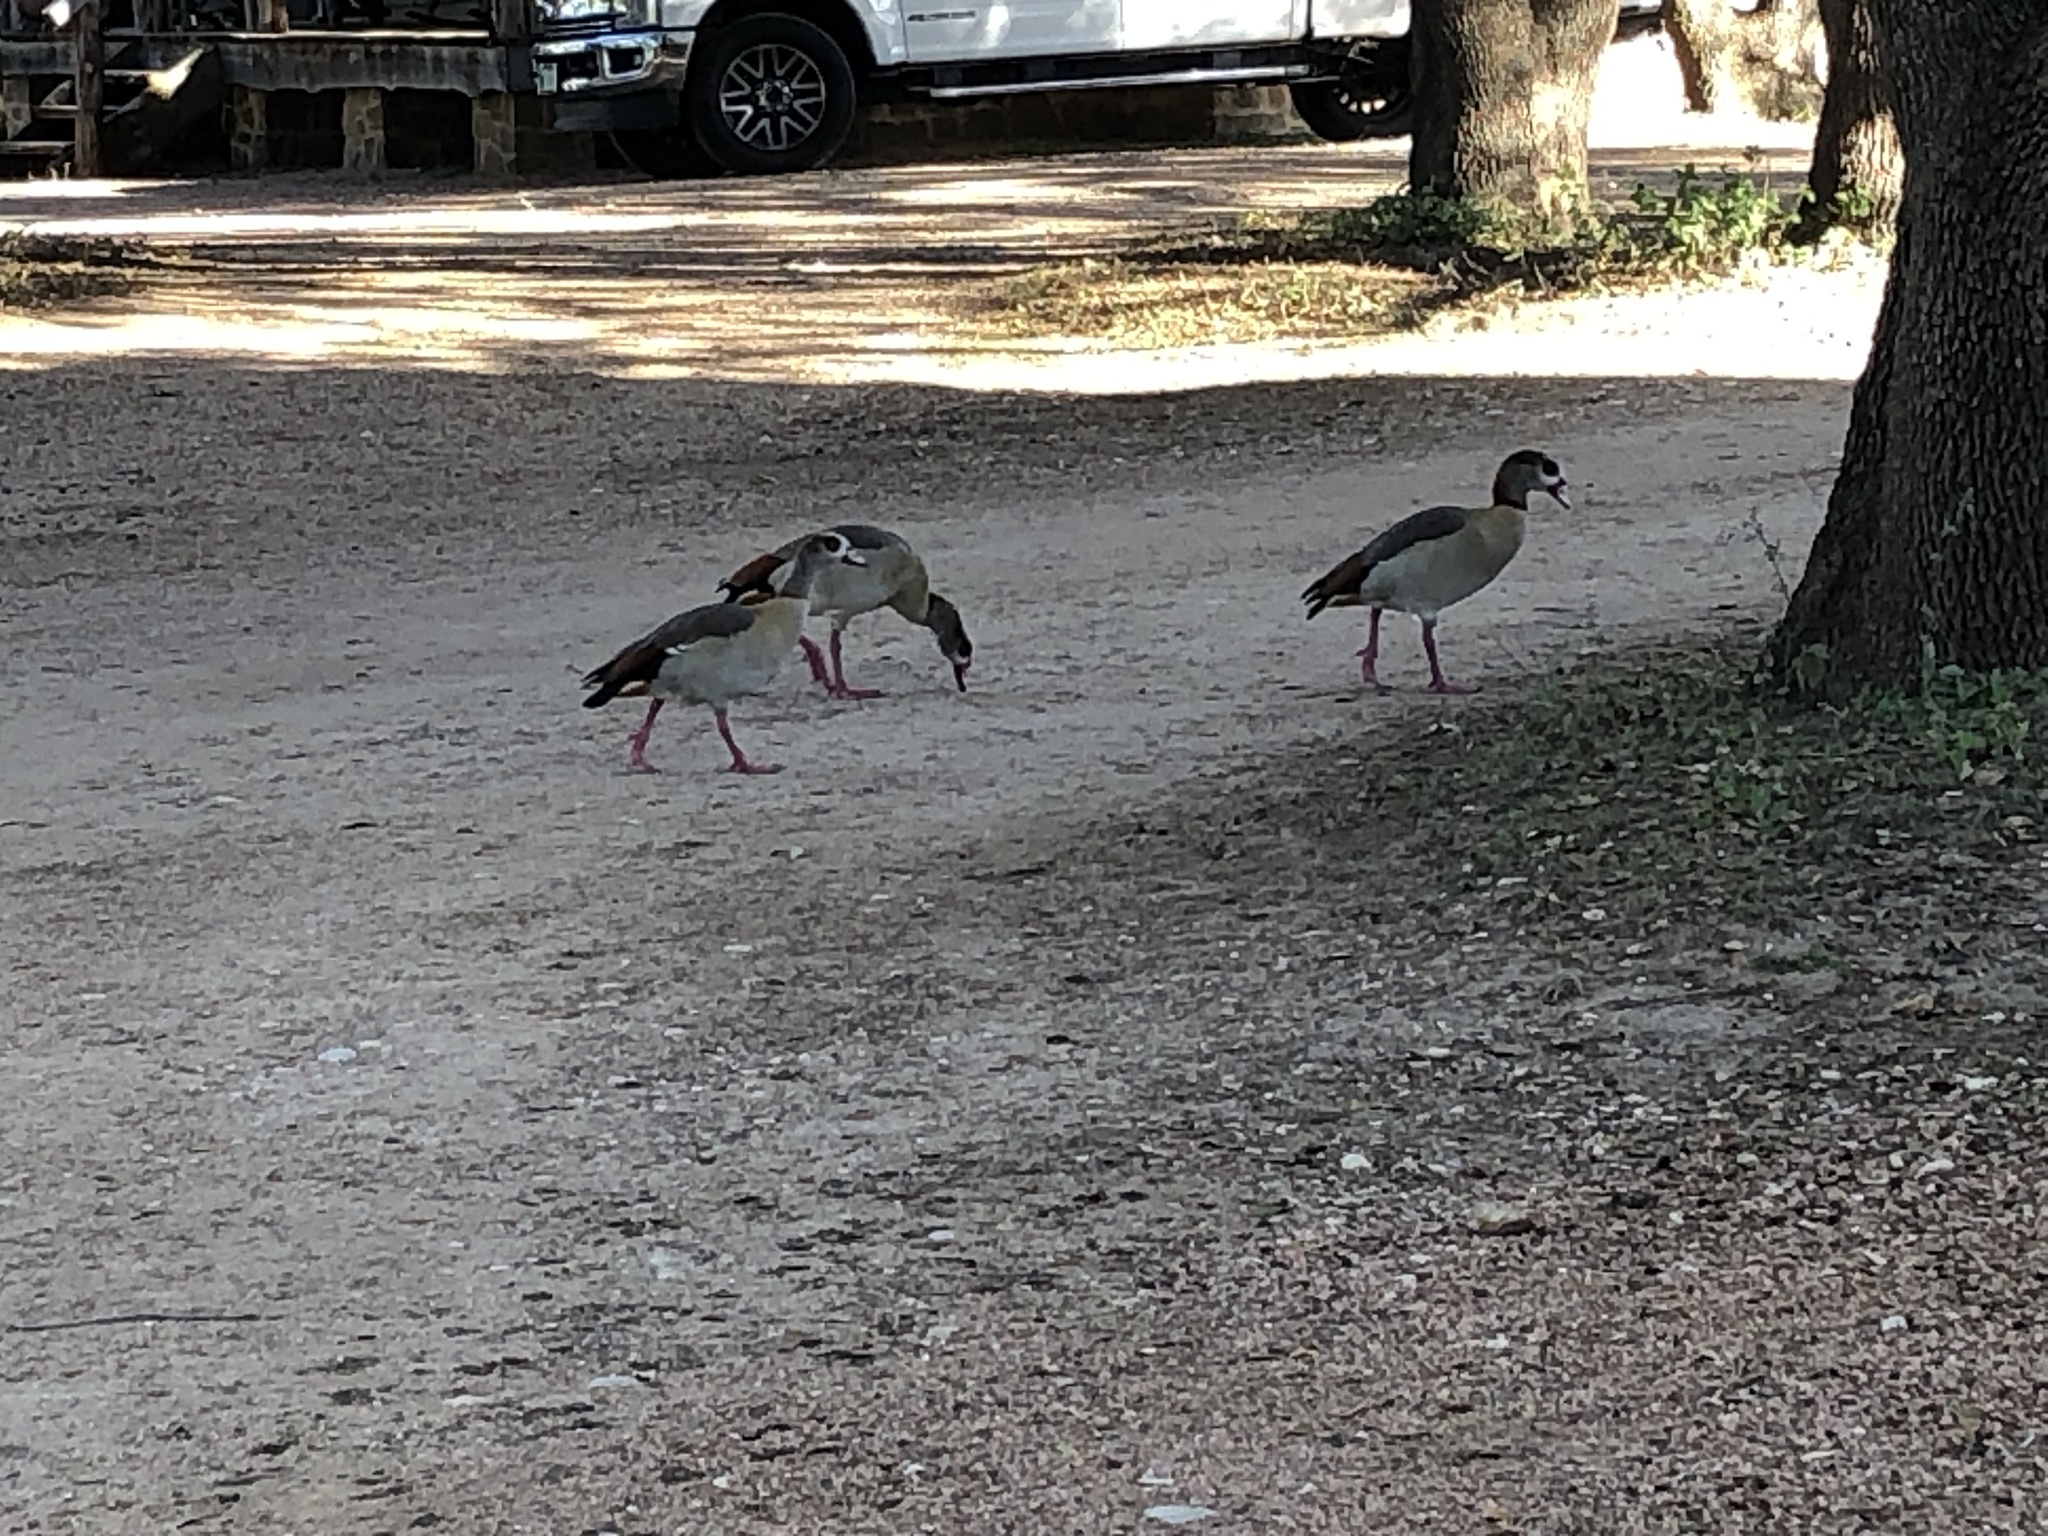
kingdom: Animalia
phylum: Chordata
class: Aves
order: Anseriformes
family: Anatidae
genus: Alopochen
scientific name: Alopochen aegyptiaca
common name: Egyptian goose
